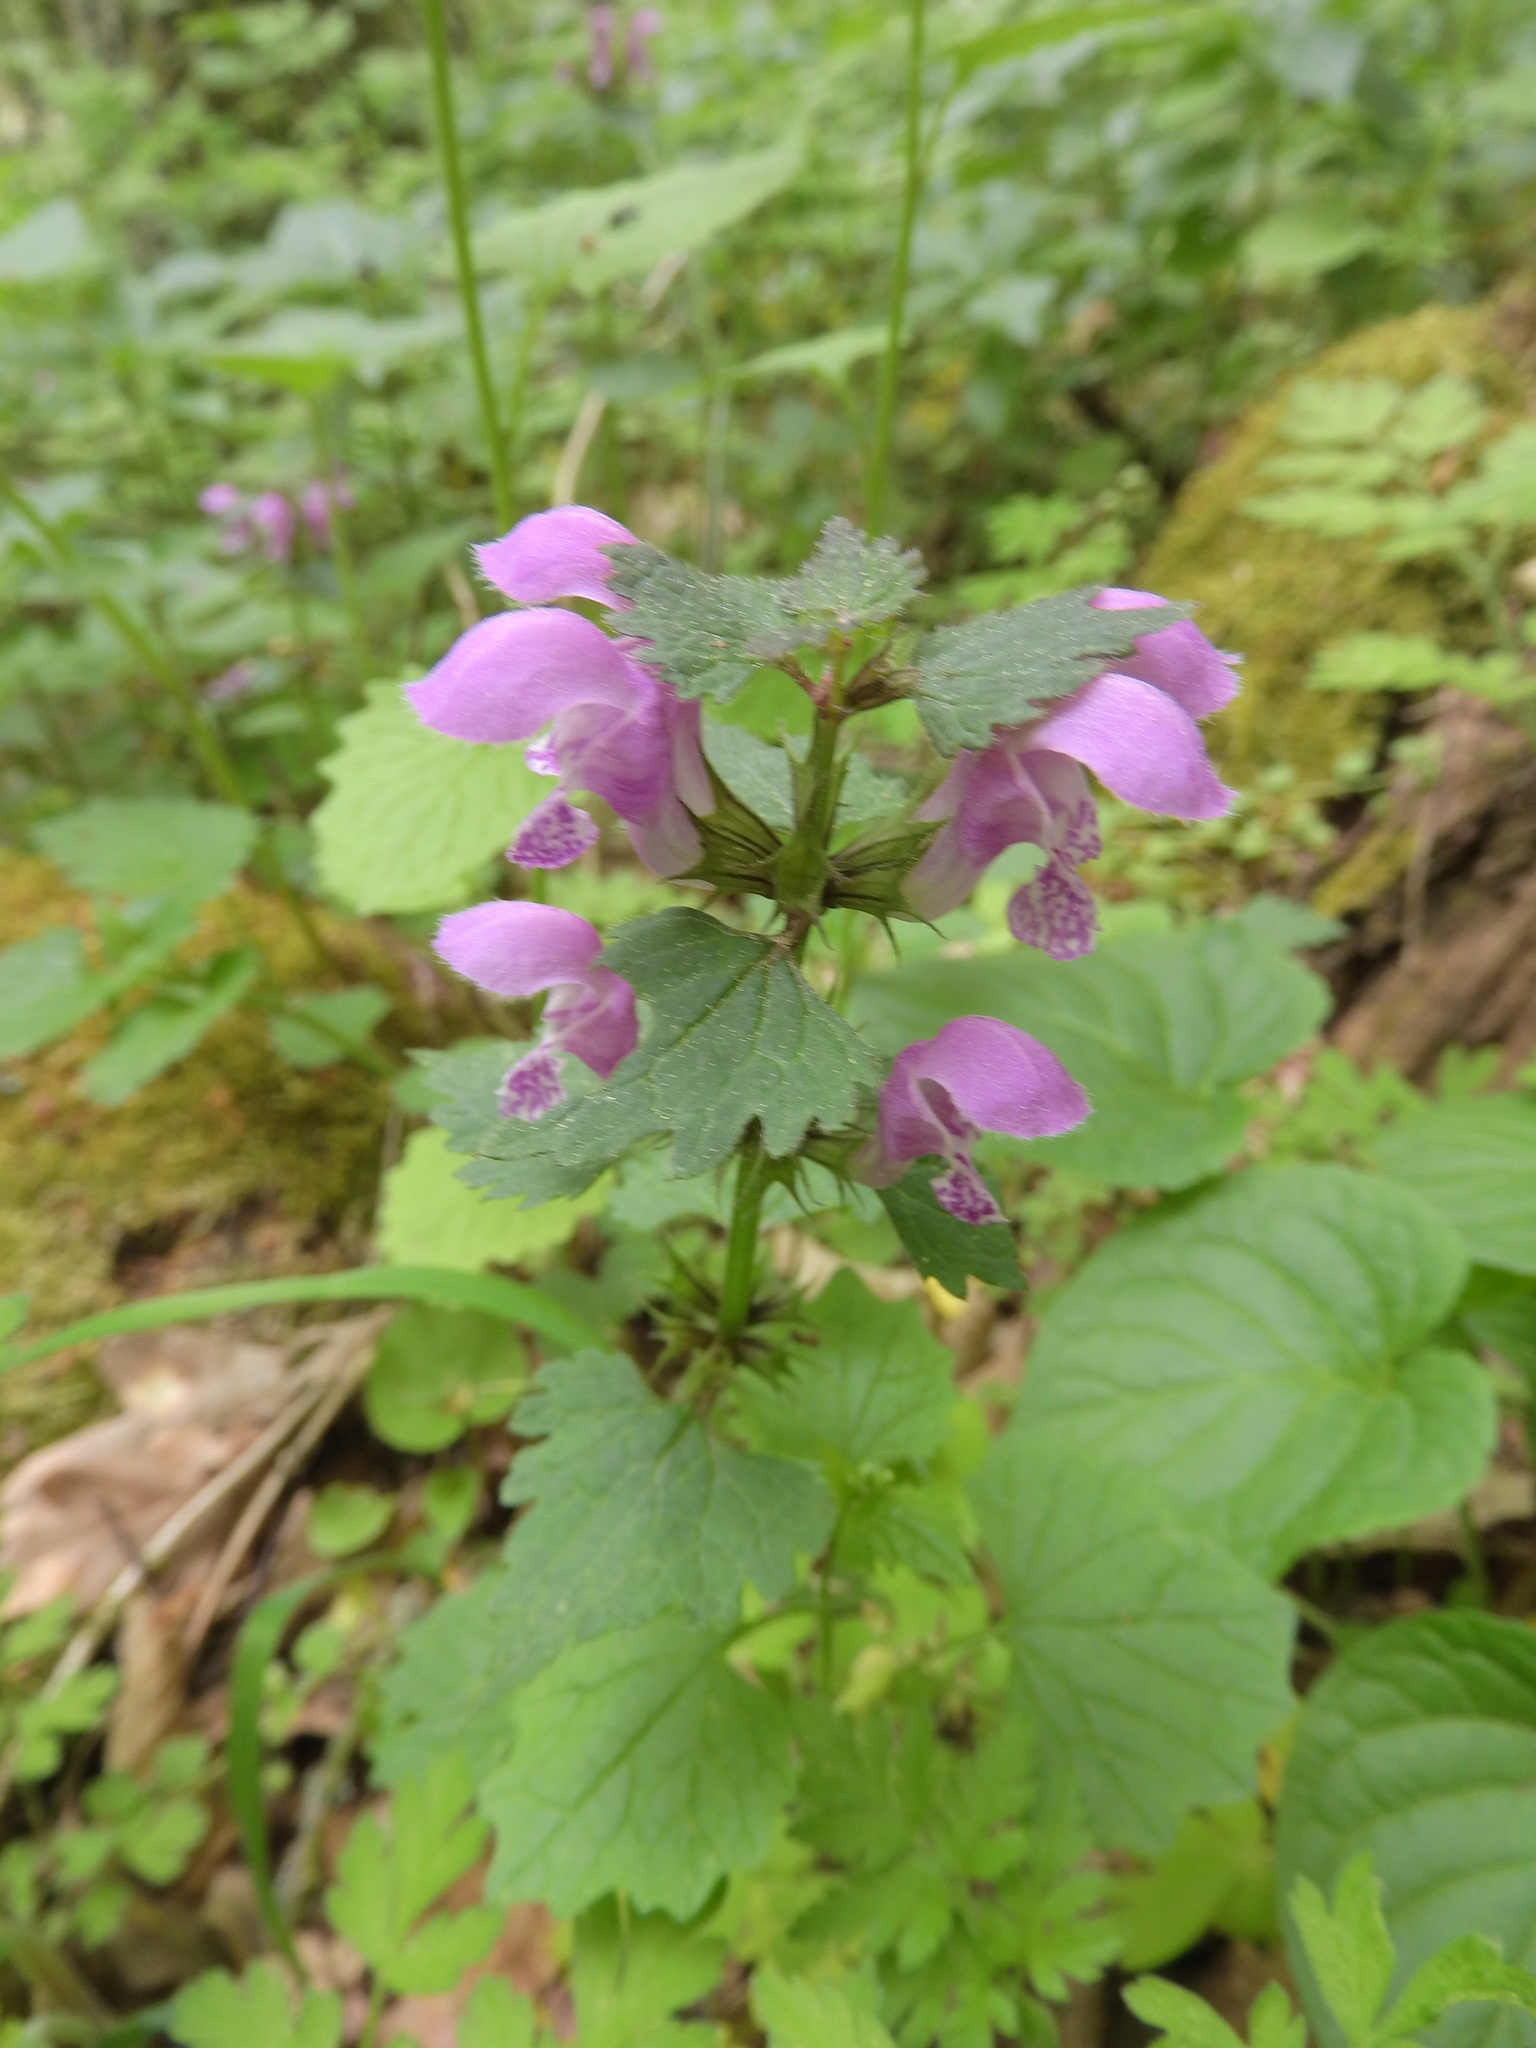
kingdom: Plantae
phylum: Tracheophyta
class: Magnoliopsida
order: Lamiales
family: Lamiaceae
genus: Lamium
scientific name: Lamium maculatum
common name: Spotted dead-nettle
